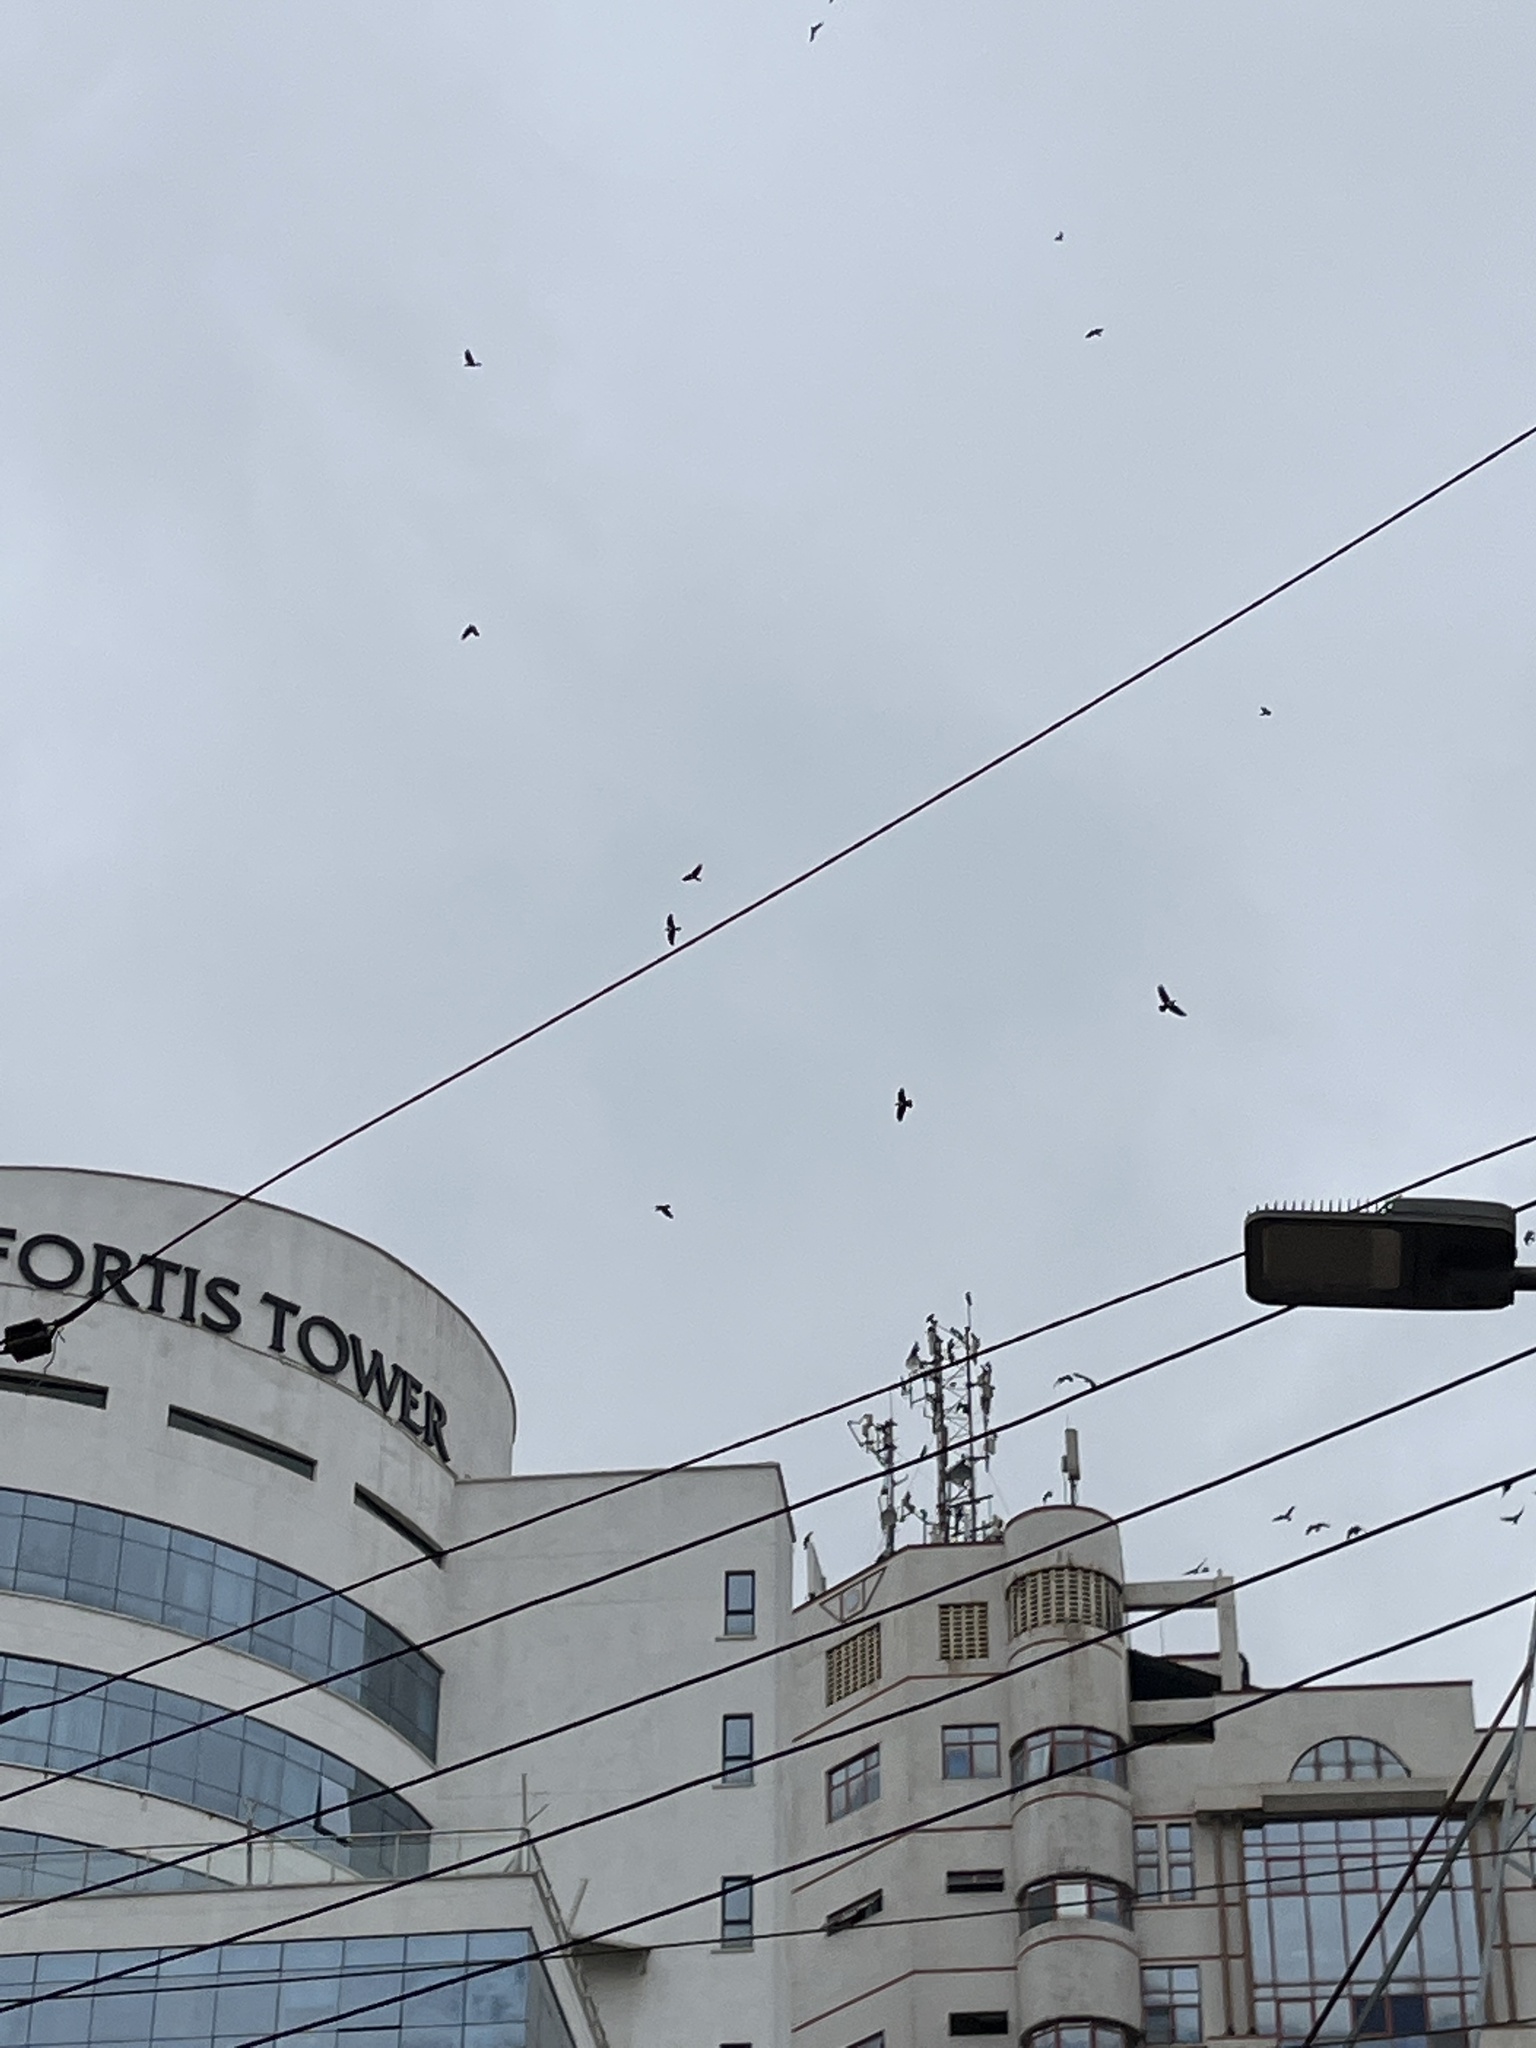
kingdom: Animalia
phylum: Chordata
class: Aves
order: Passeriformes
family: Corvidae
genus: Corvus
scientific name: Corvus albus
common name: Pied crow
